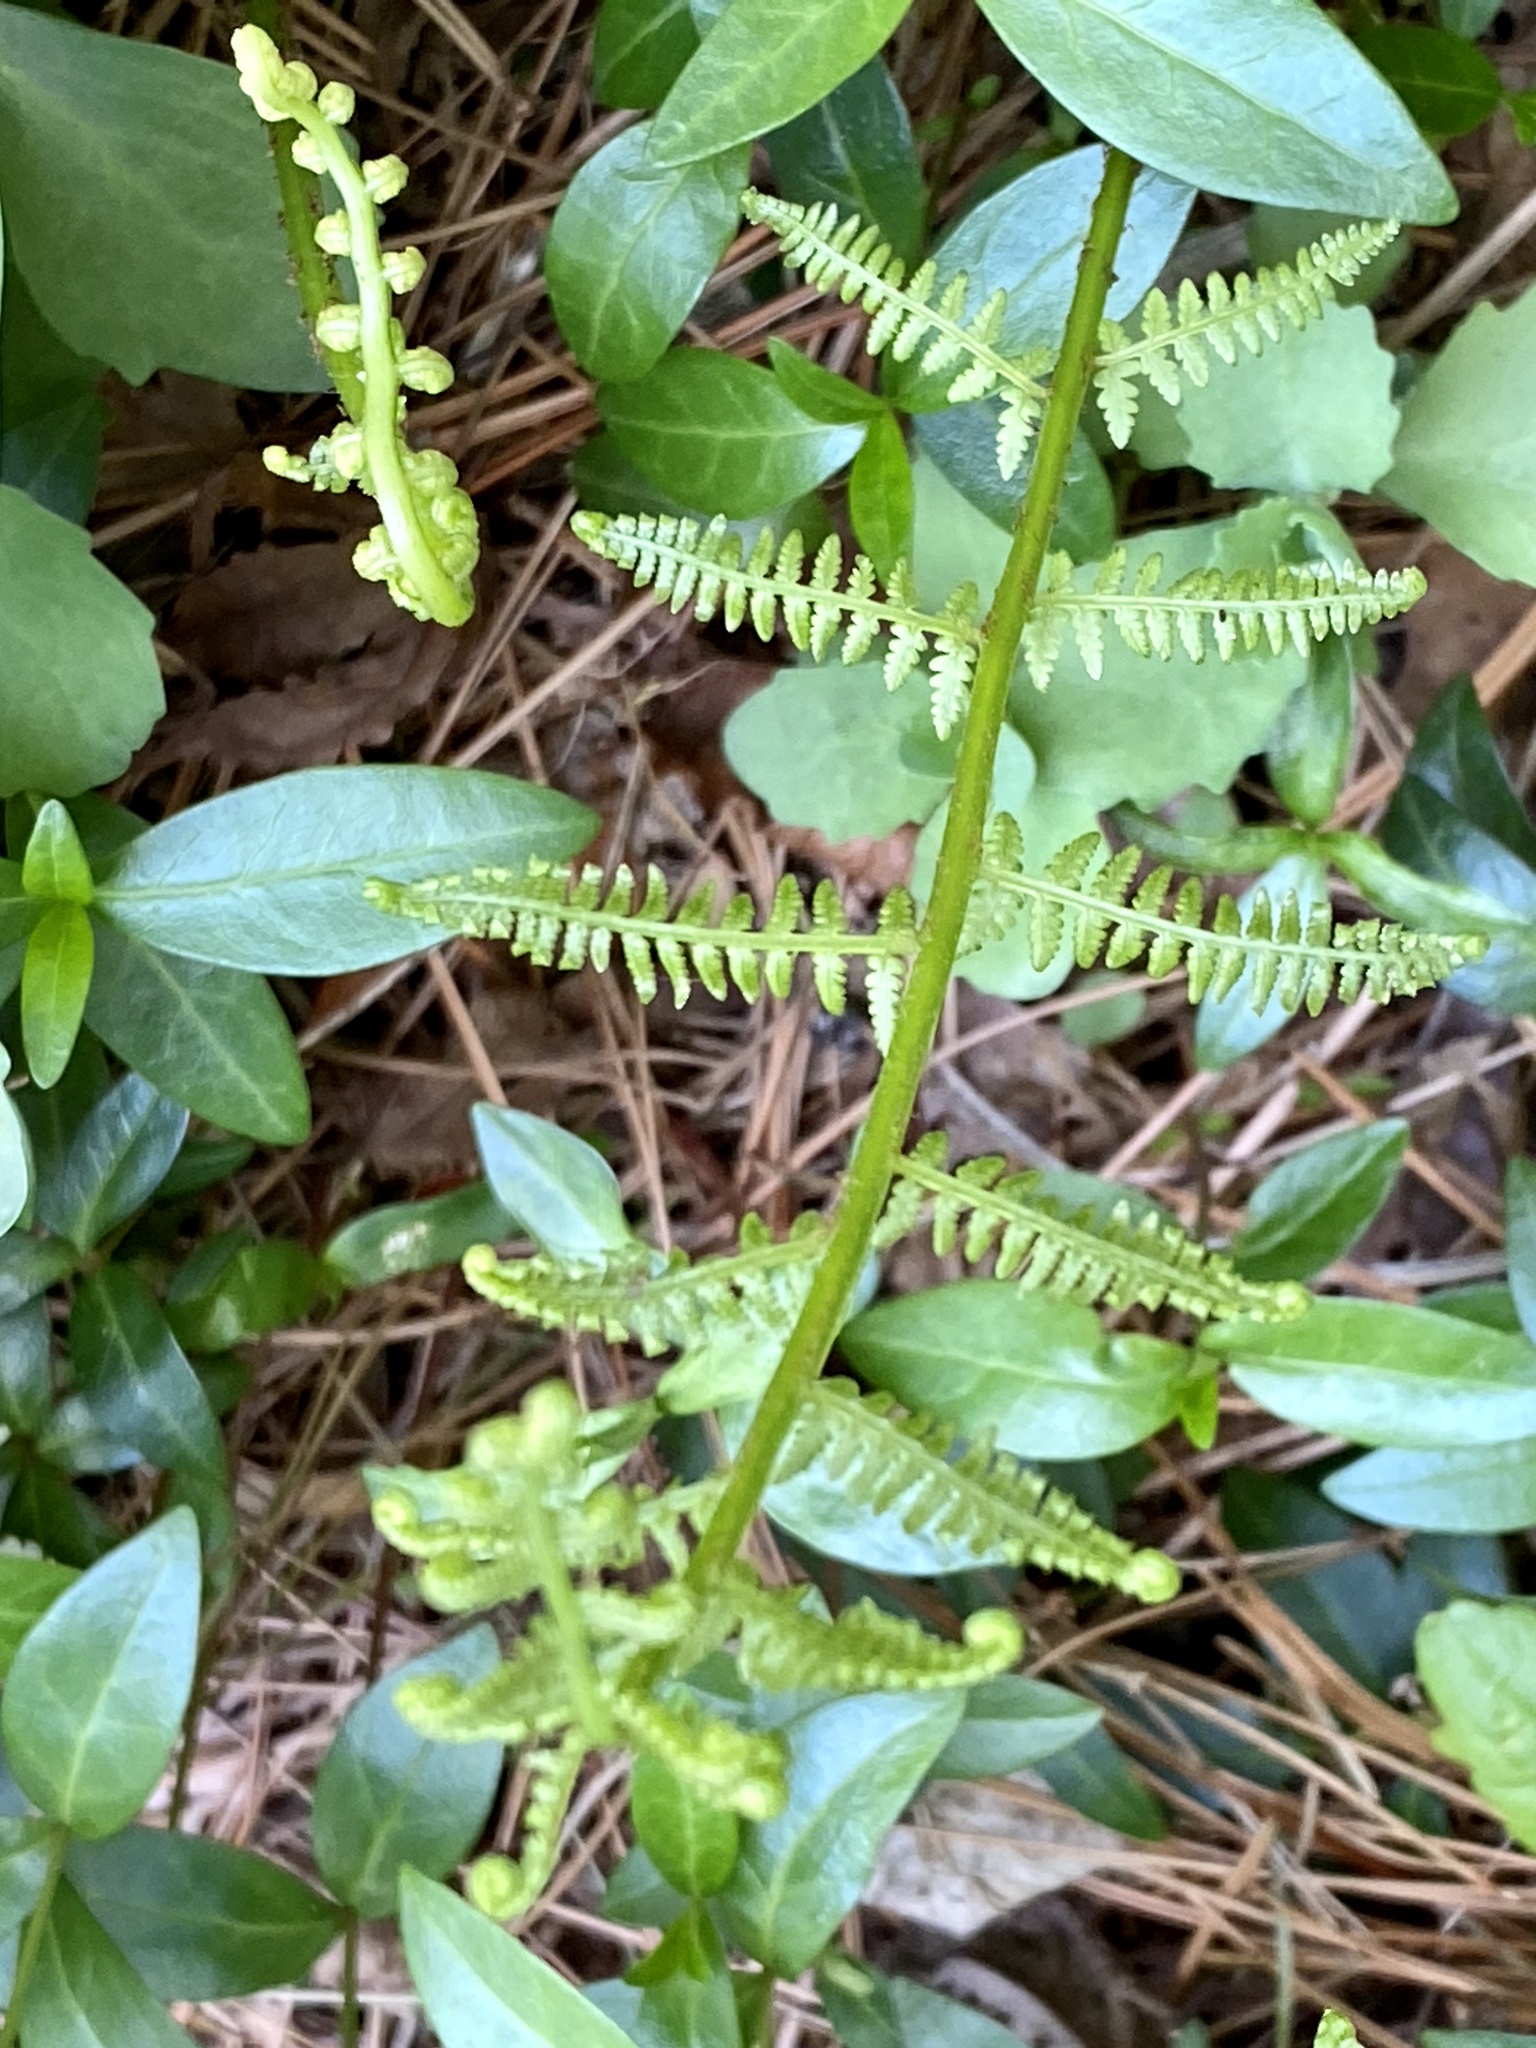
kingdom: Plantae
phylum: Tracheophyta
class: Polypodiopsida
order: Polypodiales
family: Athyriaceae
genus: Athyrium
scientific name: Athyrium angustum
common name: Northern lady fern
